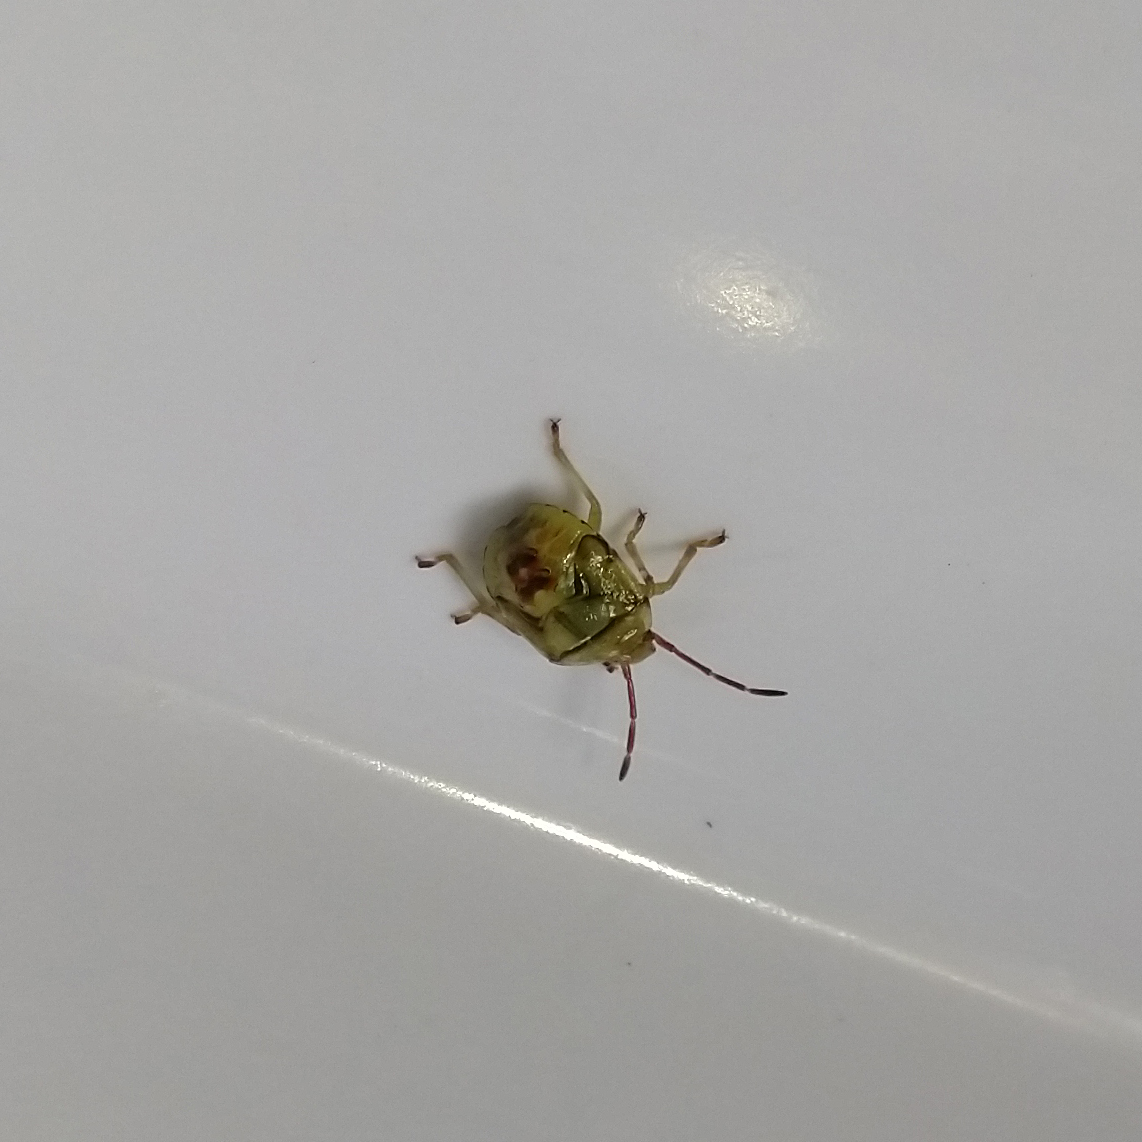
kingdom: Animalia
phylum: Arthropoda
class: Insecta
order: Hemiptera
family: Acanthosomatidae
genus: Elasmostethus
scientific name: Elasmostethus cruciatus
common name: Red-cross shield bug
